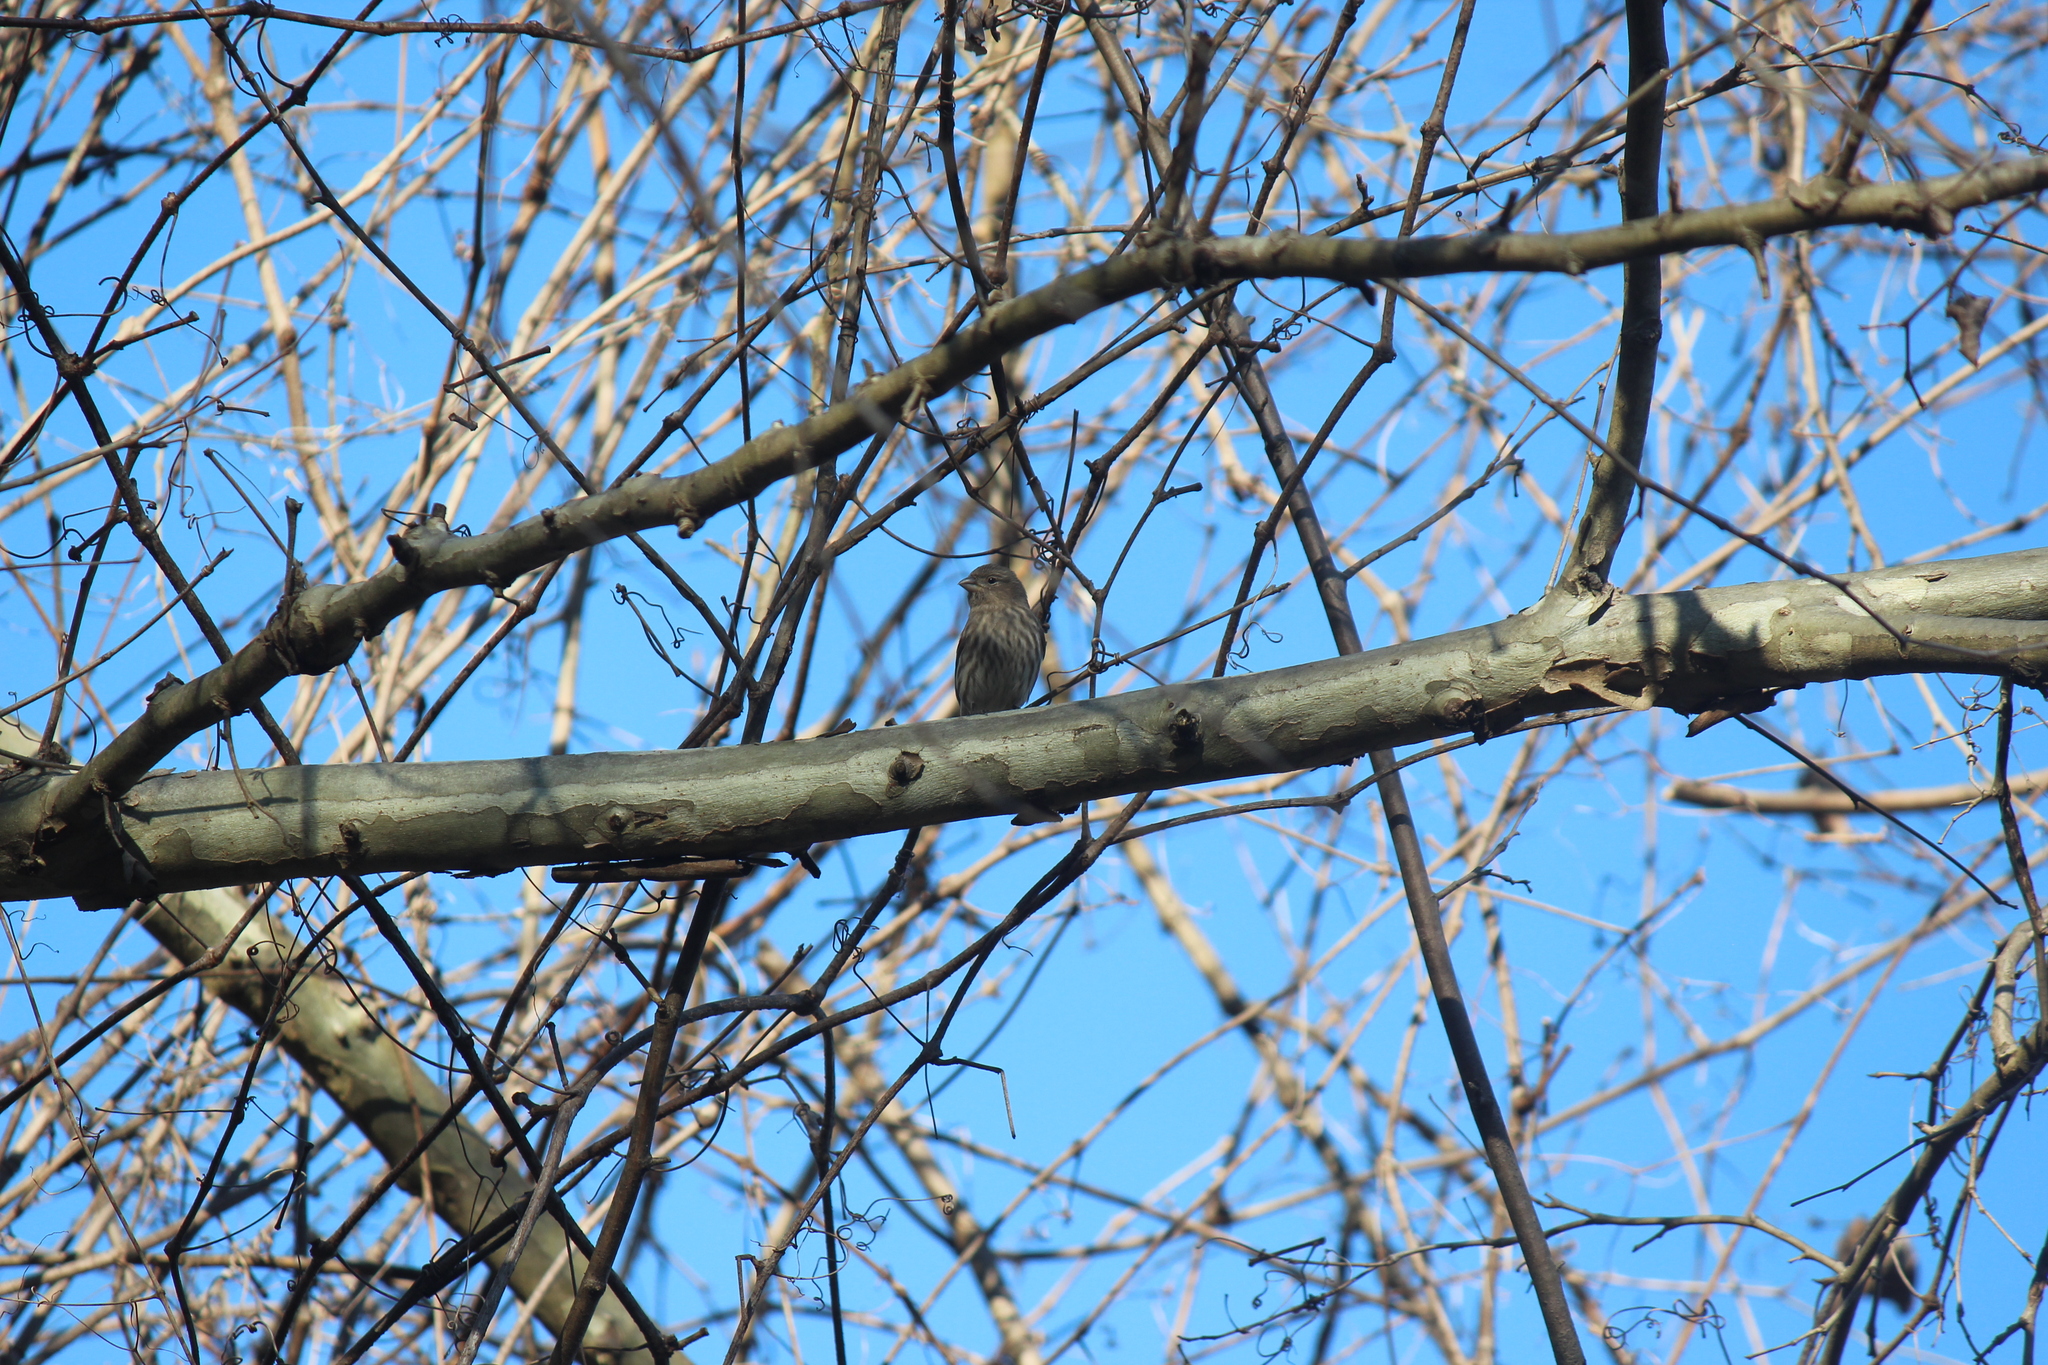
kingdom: Animalia
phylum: Chordata
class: Aves
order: Passeriformes
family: Fringillidae
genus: Haemorhous
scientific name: Haemorhous mexicanus
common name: House finch
